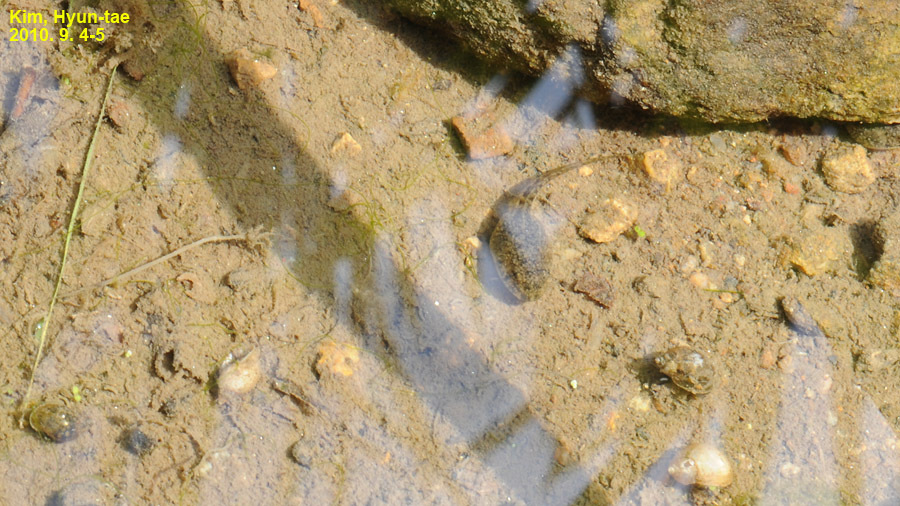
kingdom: Animalia
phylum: Chordata
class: Amphibia
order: Anura
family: Ranidae
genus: Glandirana
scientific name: Glandirana emeljanovi
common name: Northeast china rough-skinned frog
